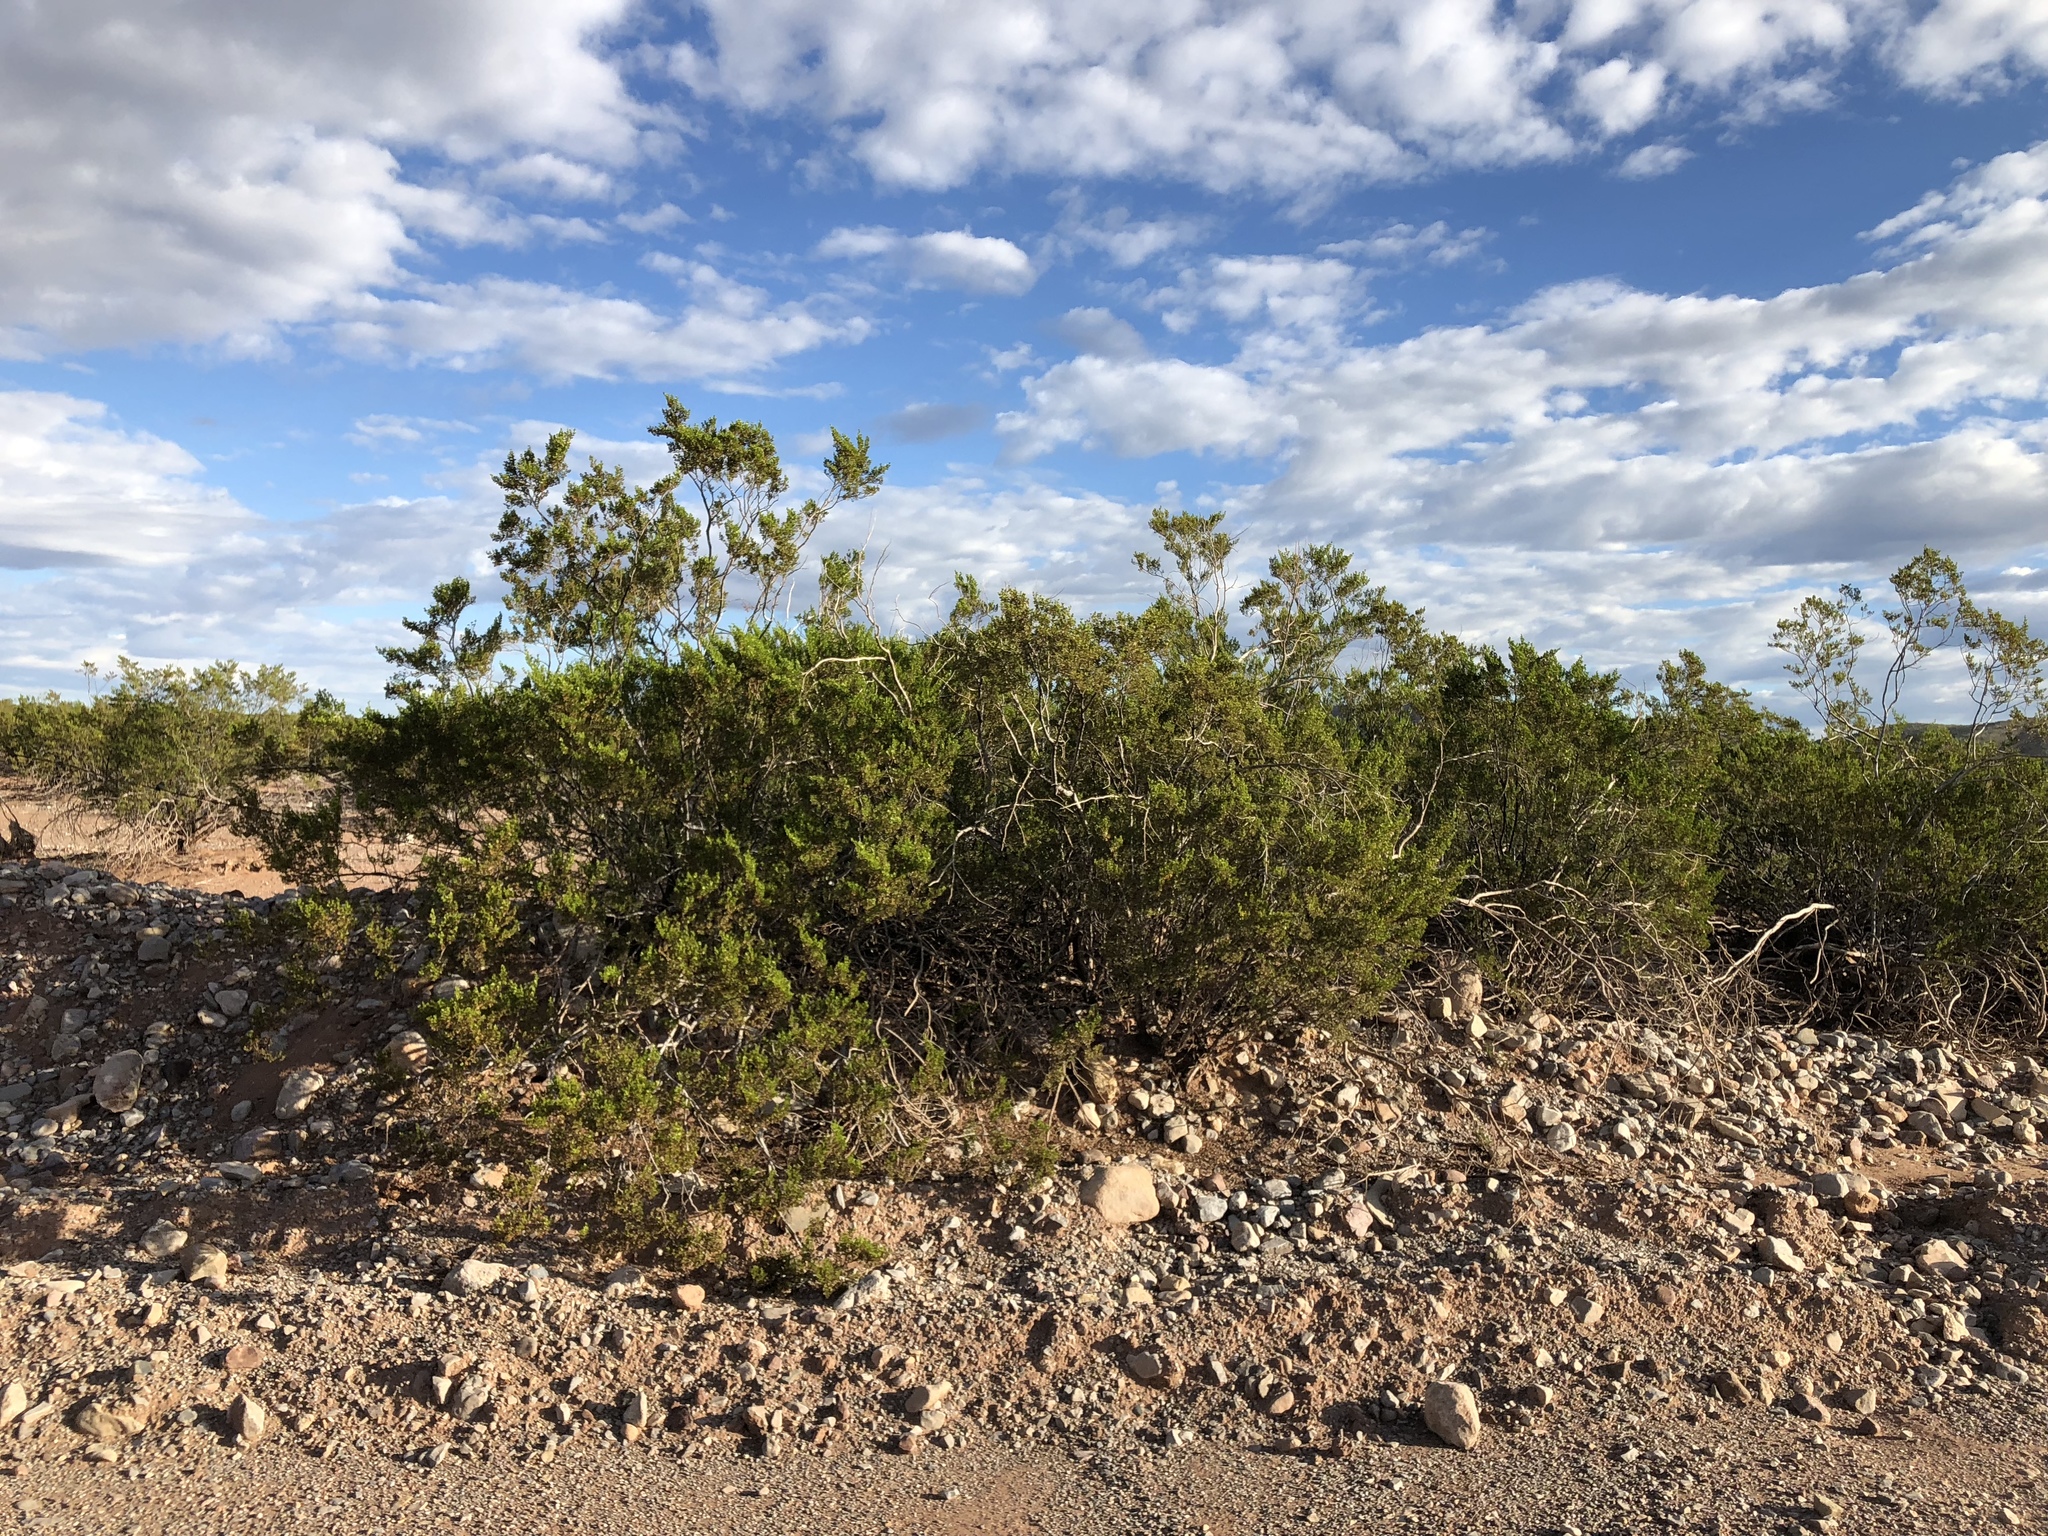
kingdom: Plantae
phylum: Tracheophyta
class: Magnoliopsida
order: Zygophyllales
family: Zygophyllaceae
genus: Larrea
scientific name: Larrea tridentata
